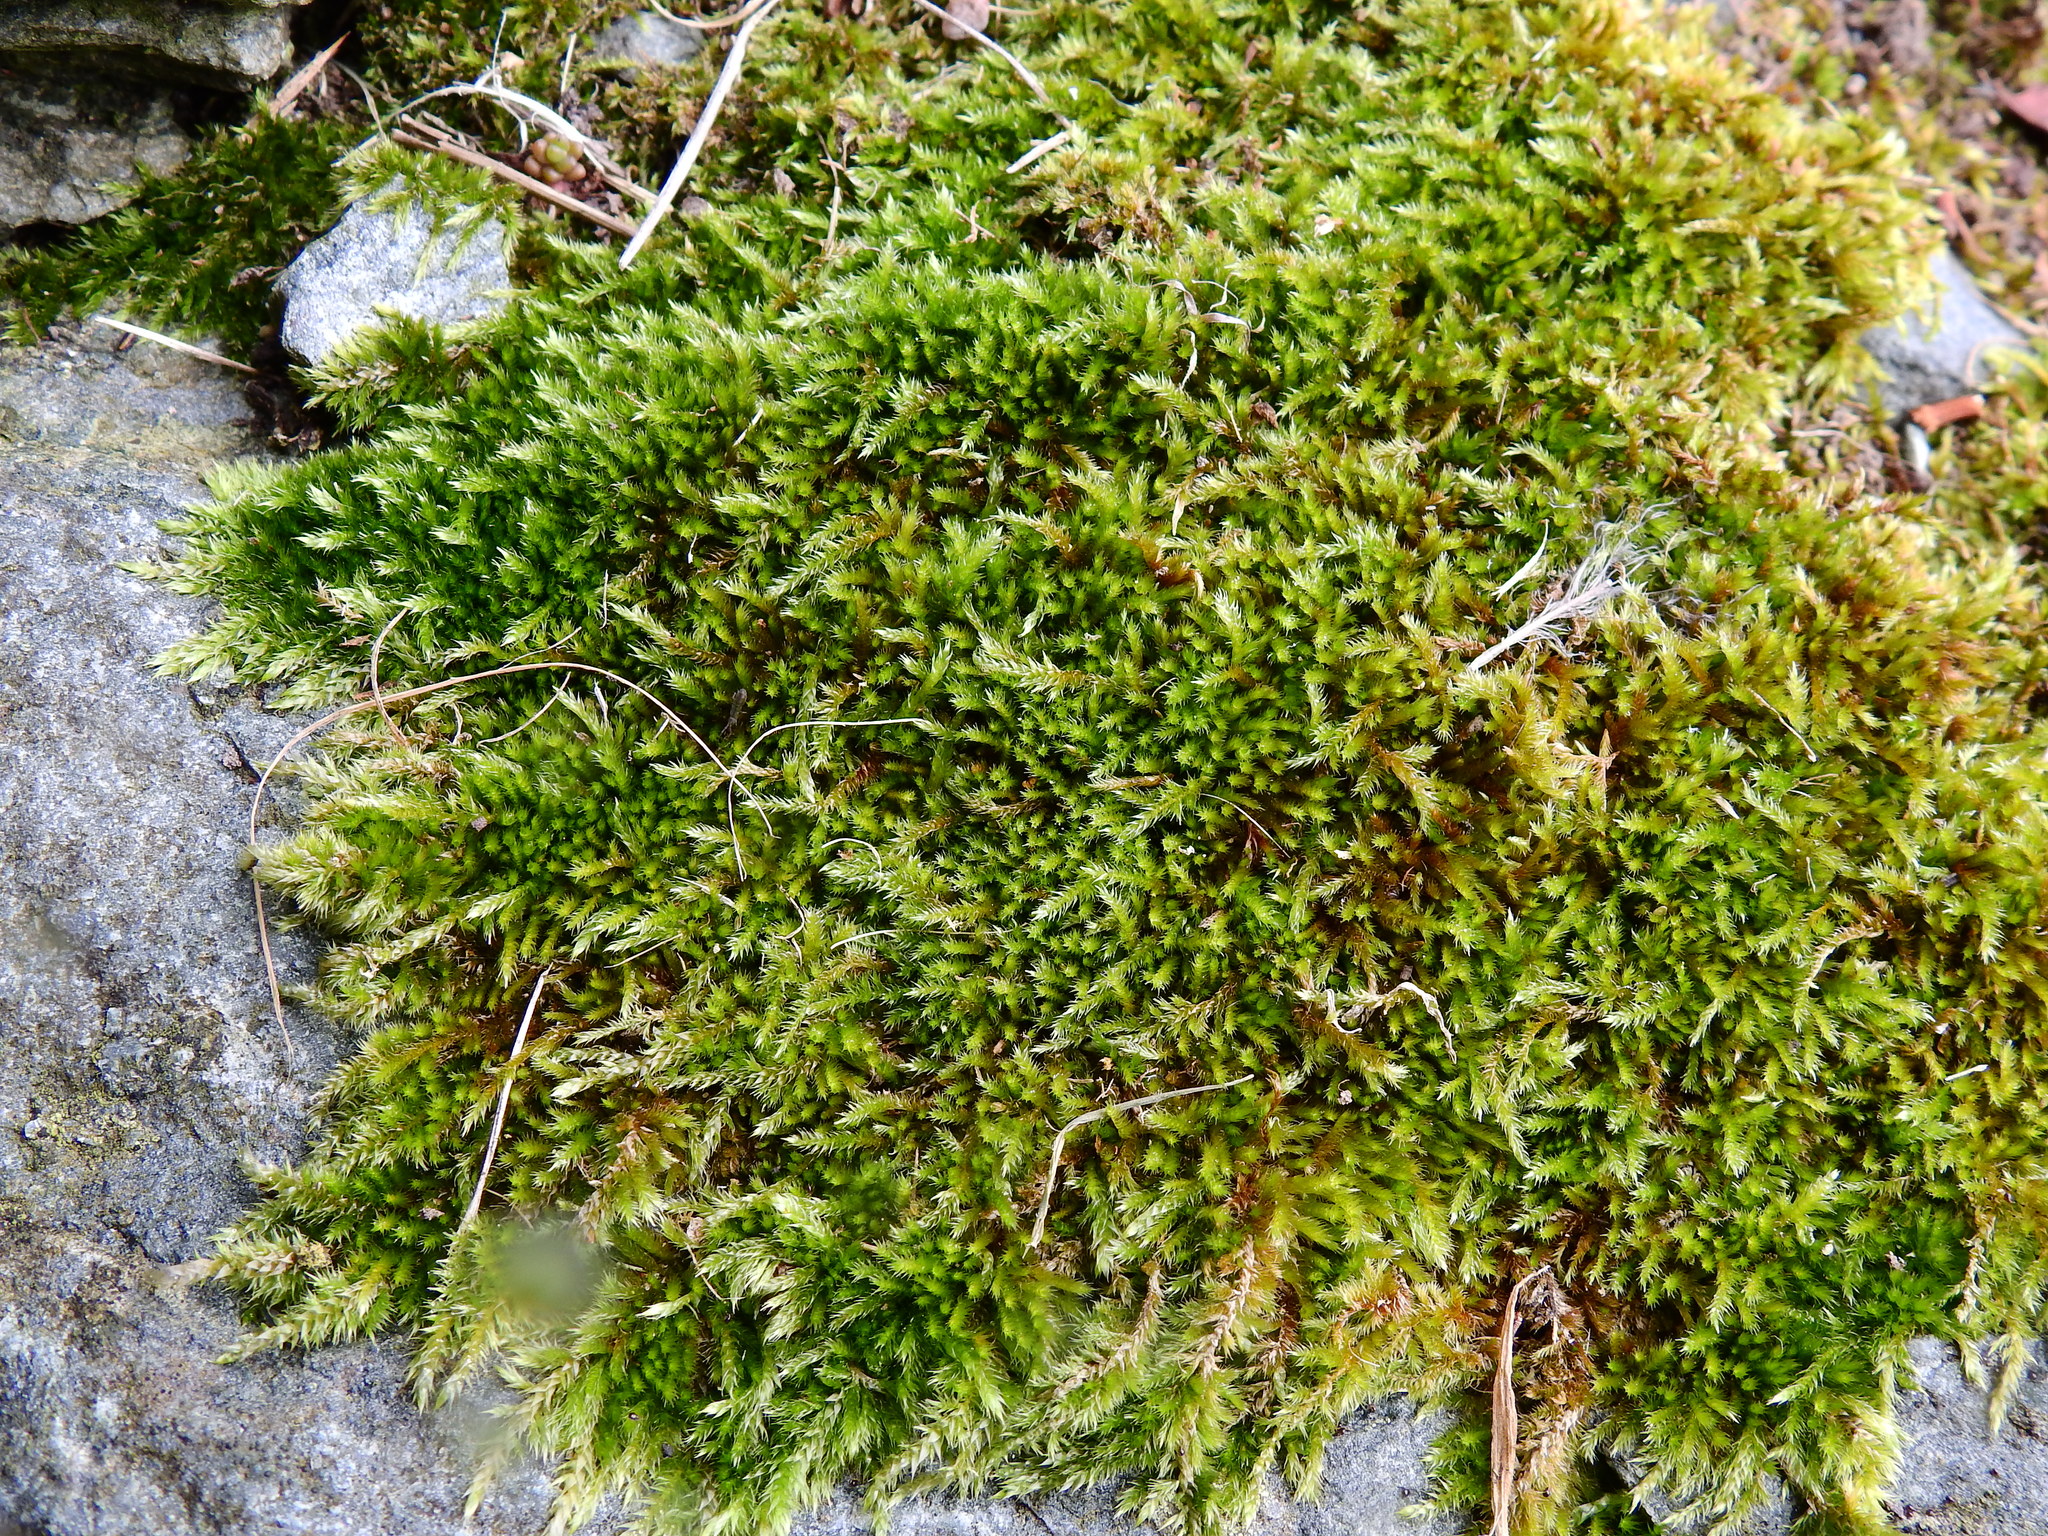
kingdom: Plantae
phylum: Bryophyta
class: Bryopsida
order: Hypnales
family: Brachytheciaceae
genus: Homalothecium
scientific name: Homalothecium sericeum
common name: Silky wall feather-moss
